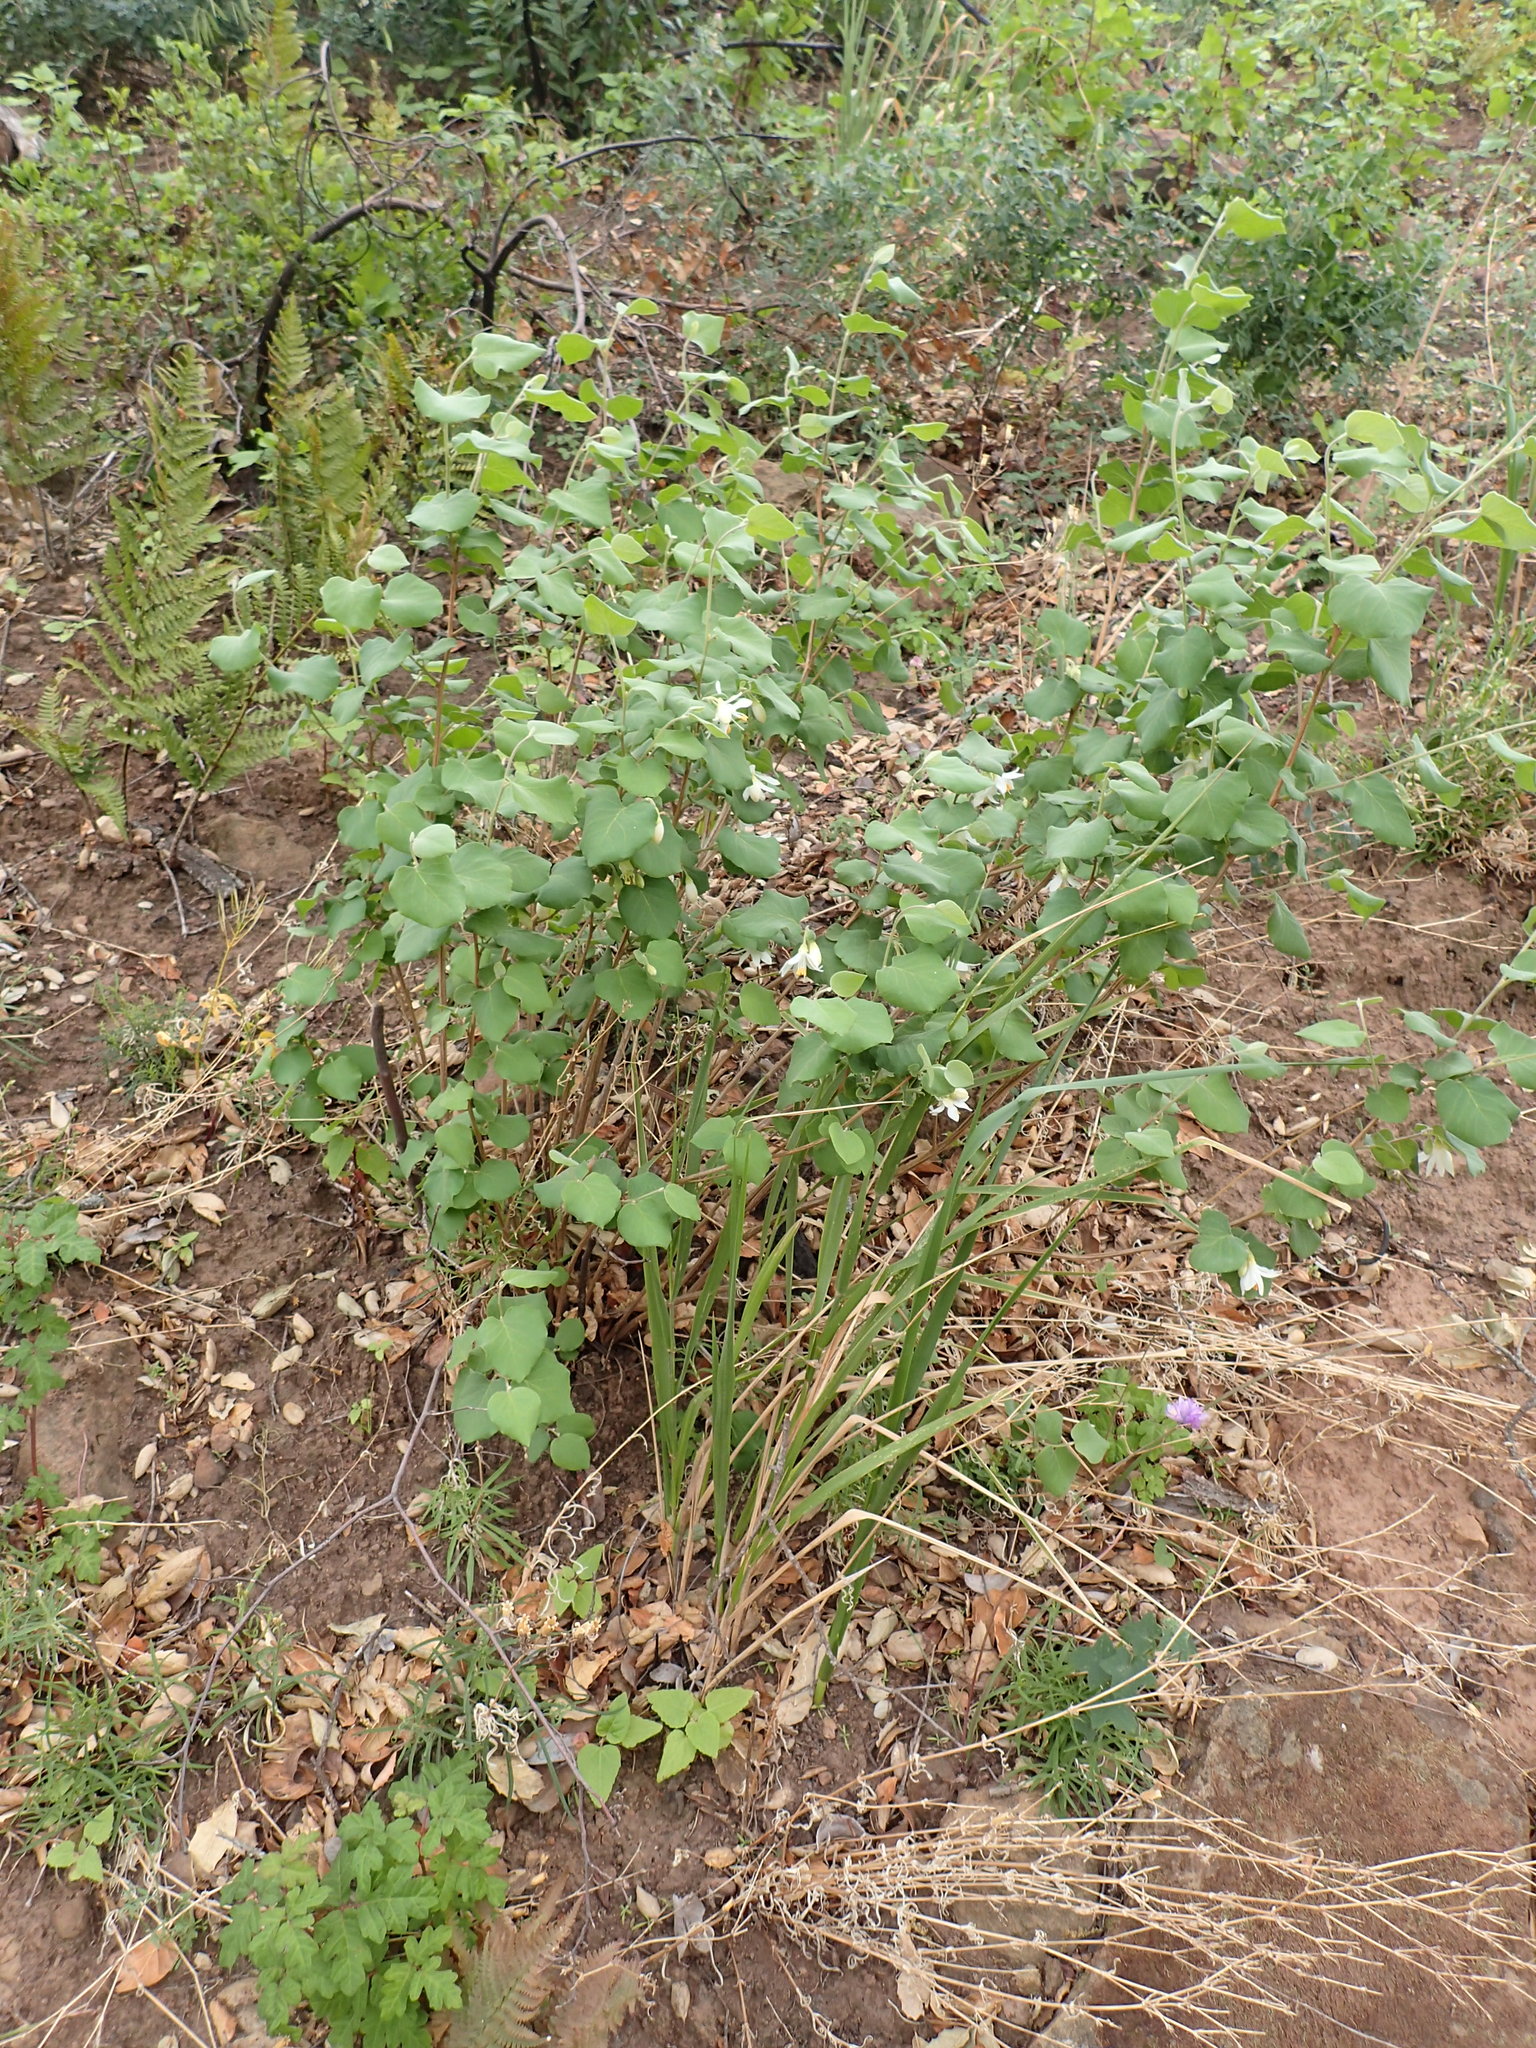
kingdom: Plantae
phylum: Tracheophyta
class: Magnoliopsida
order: Ericales
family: Styracaceae
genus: Styrax
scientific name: Styrax redivivus
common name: California styrax
